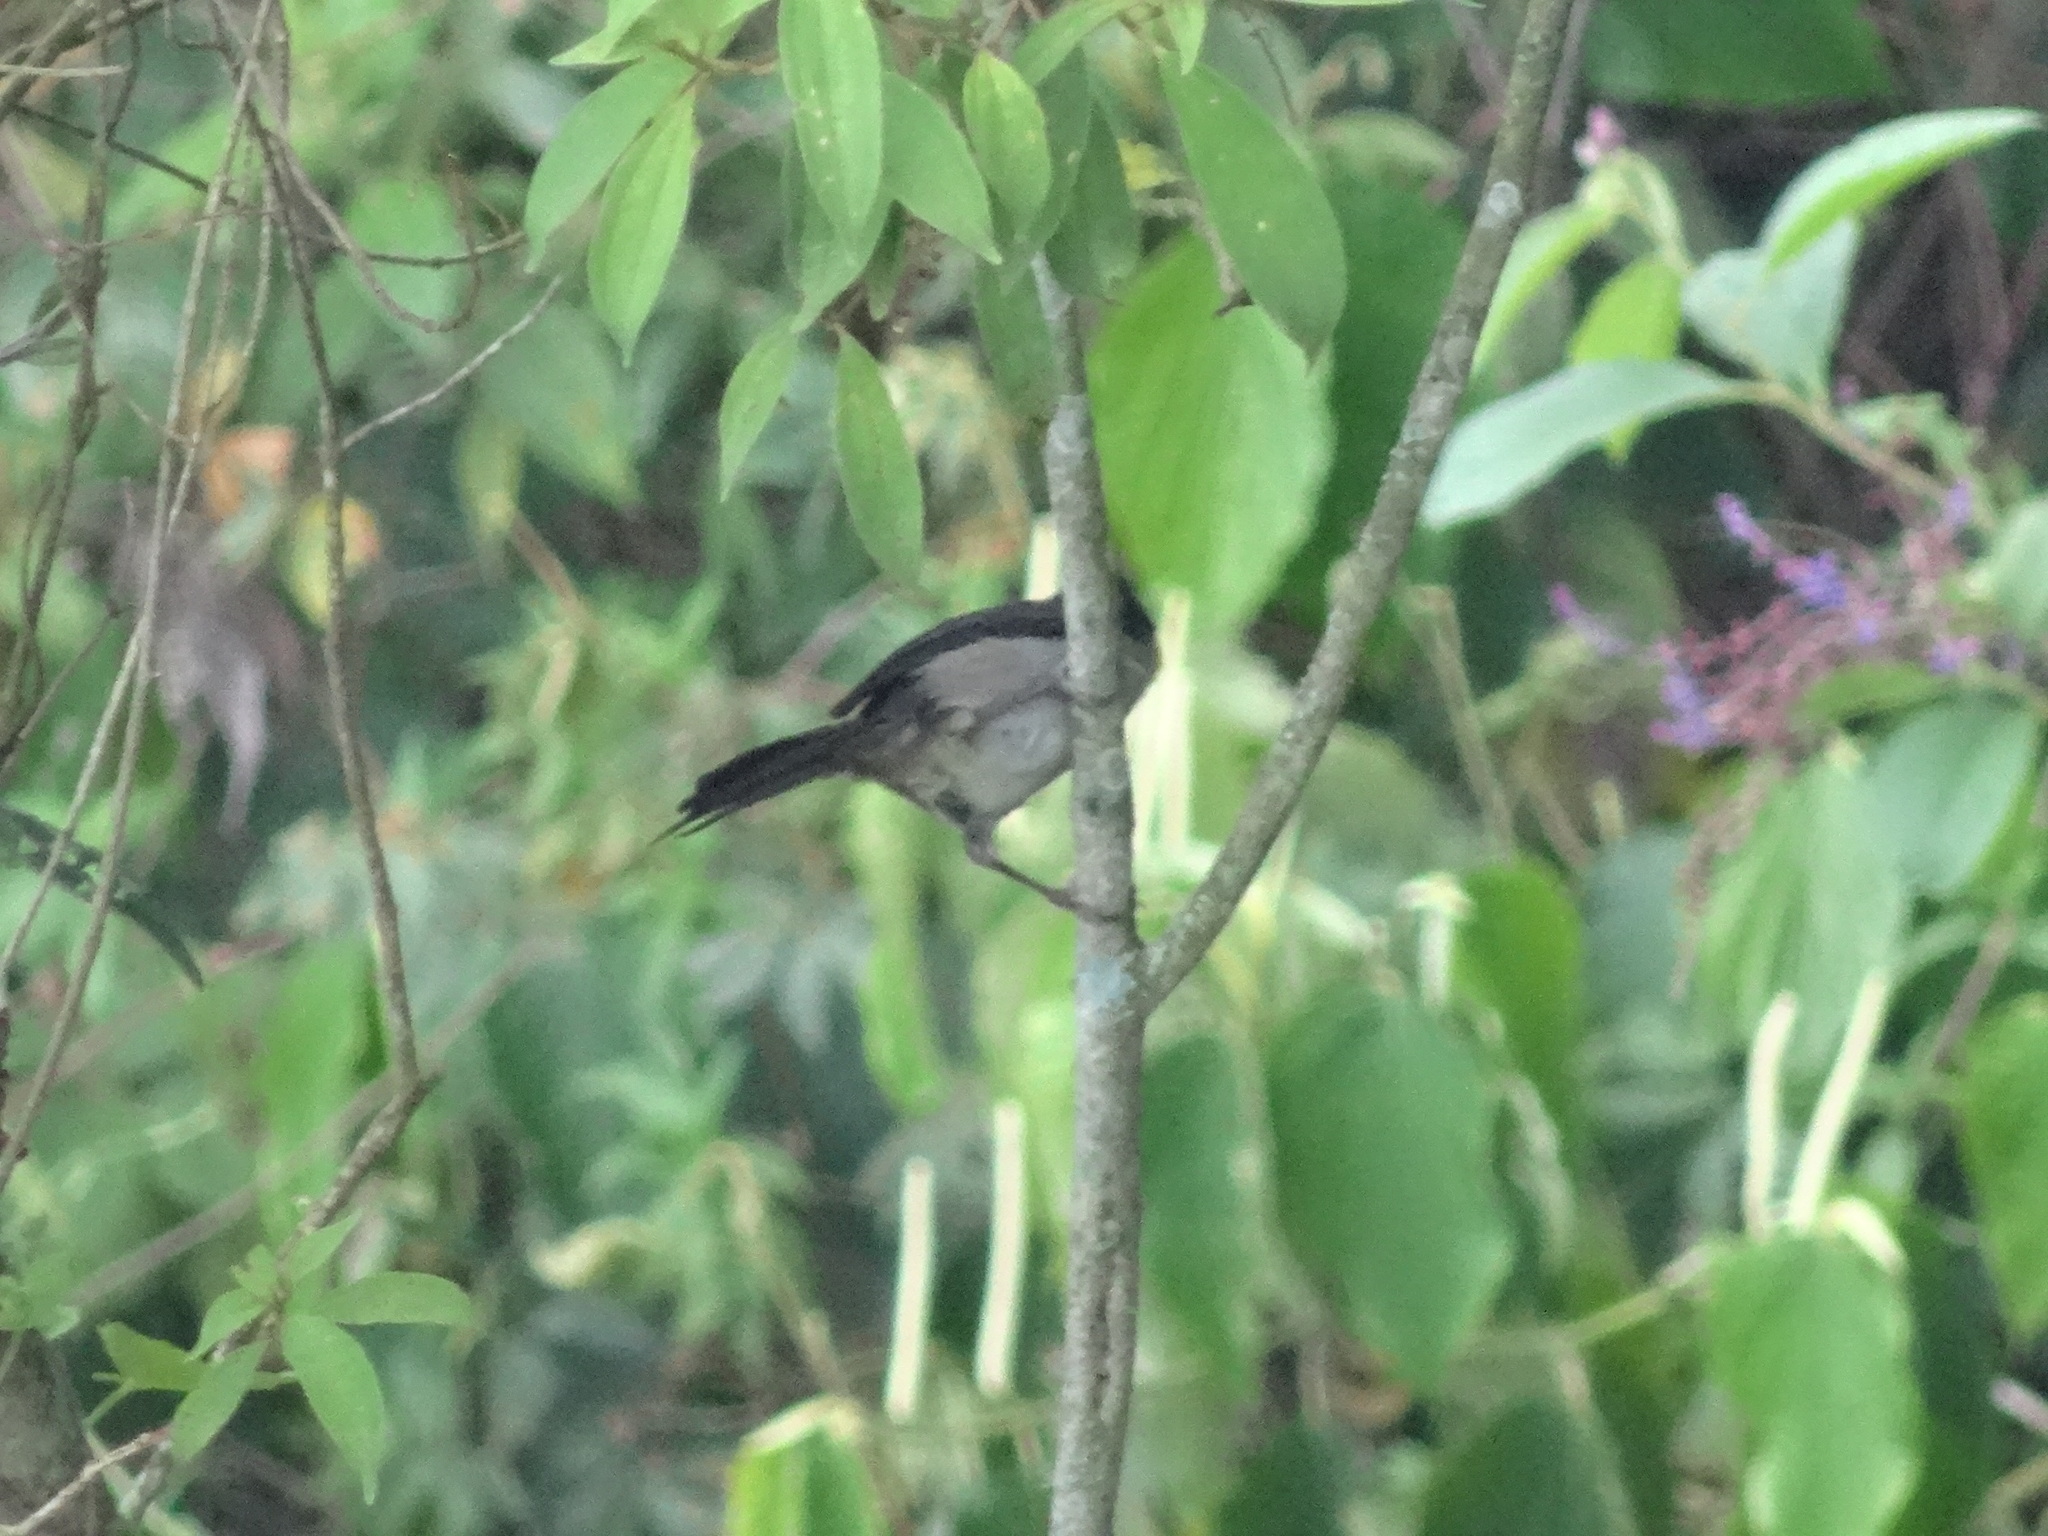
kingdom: Animalia
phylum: Chordata
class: Aves
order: Passeriformes
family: Passerellidae
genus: Atlapetes
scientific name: Atlapetes albinucha
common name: White-naped brush-finch
